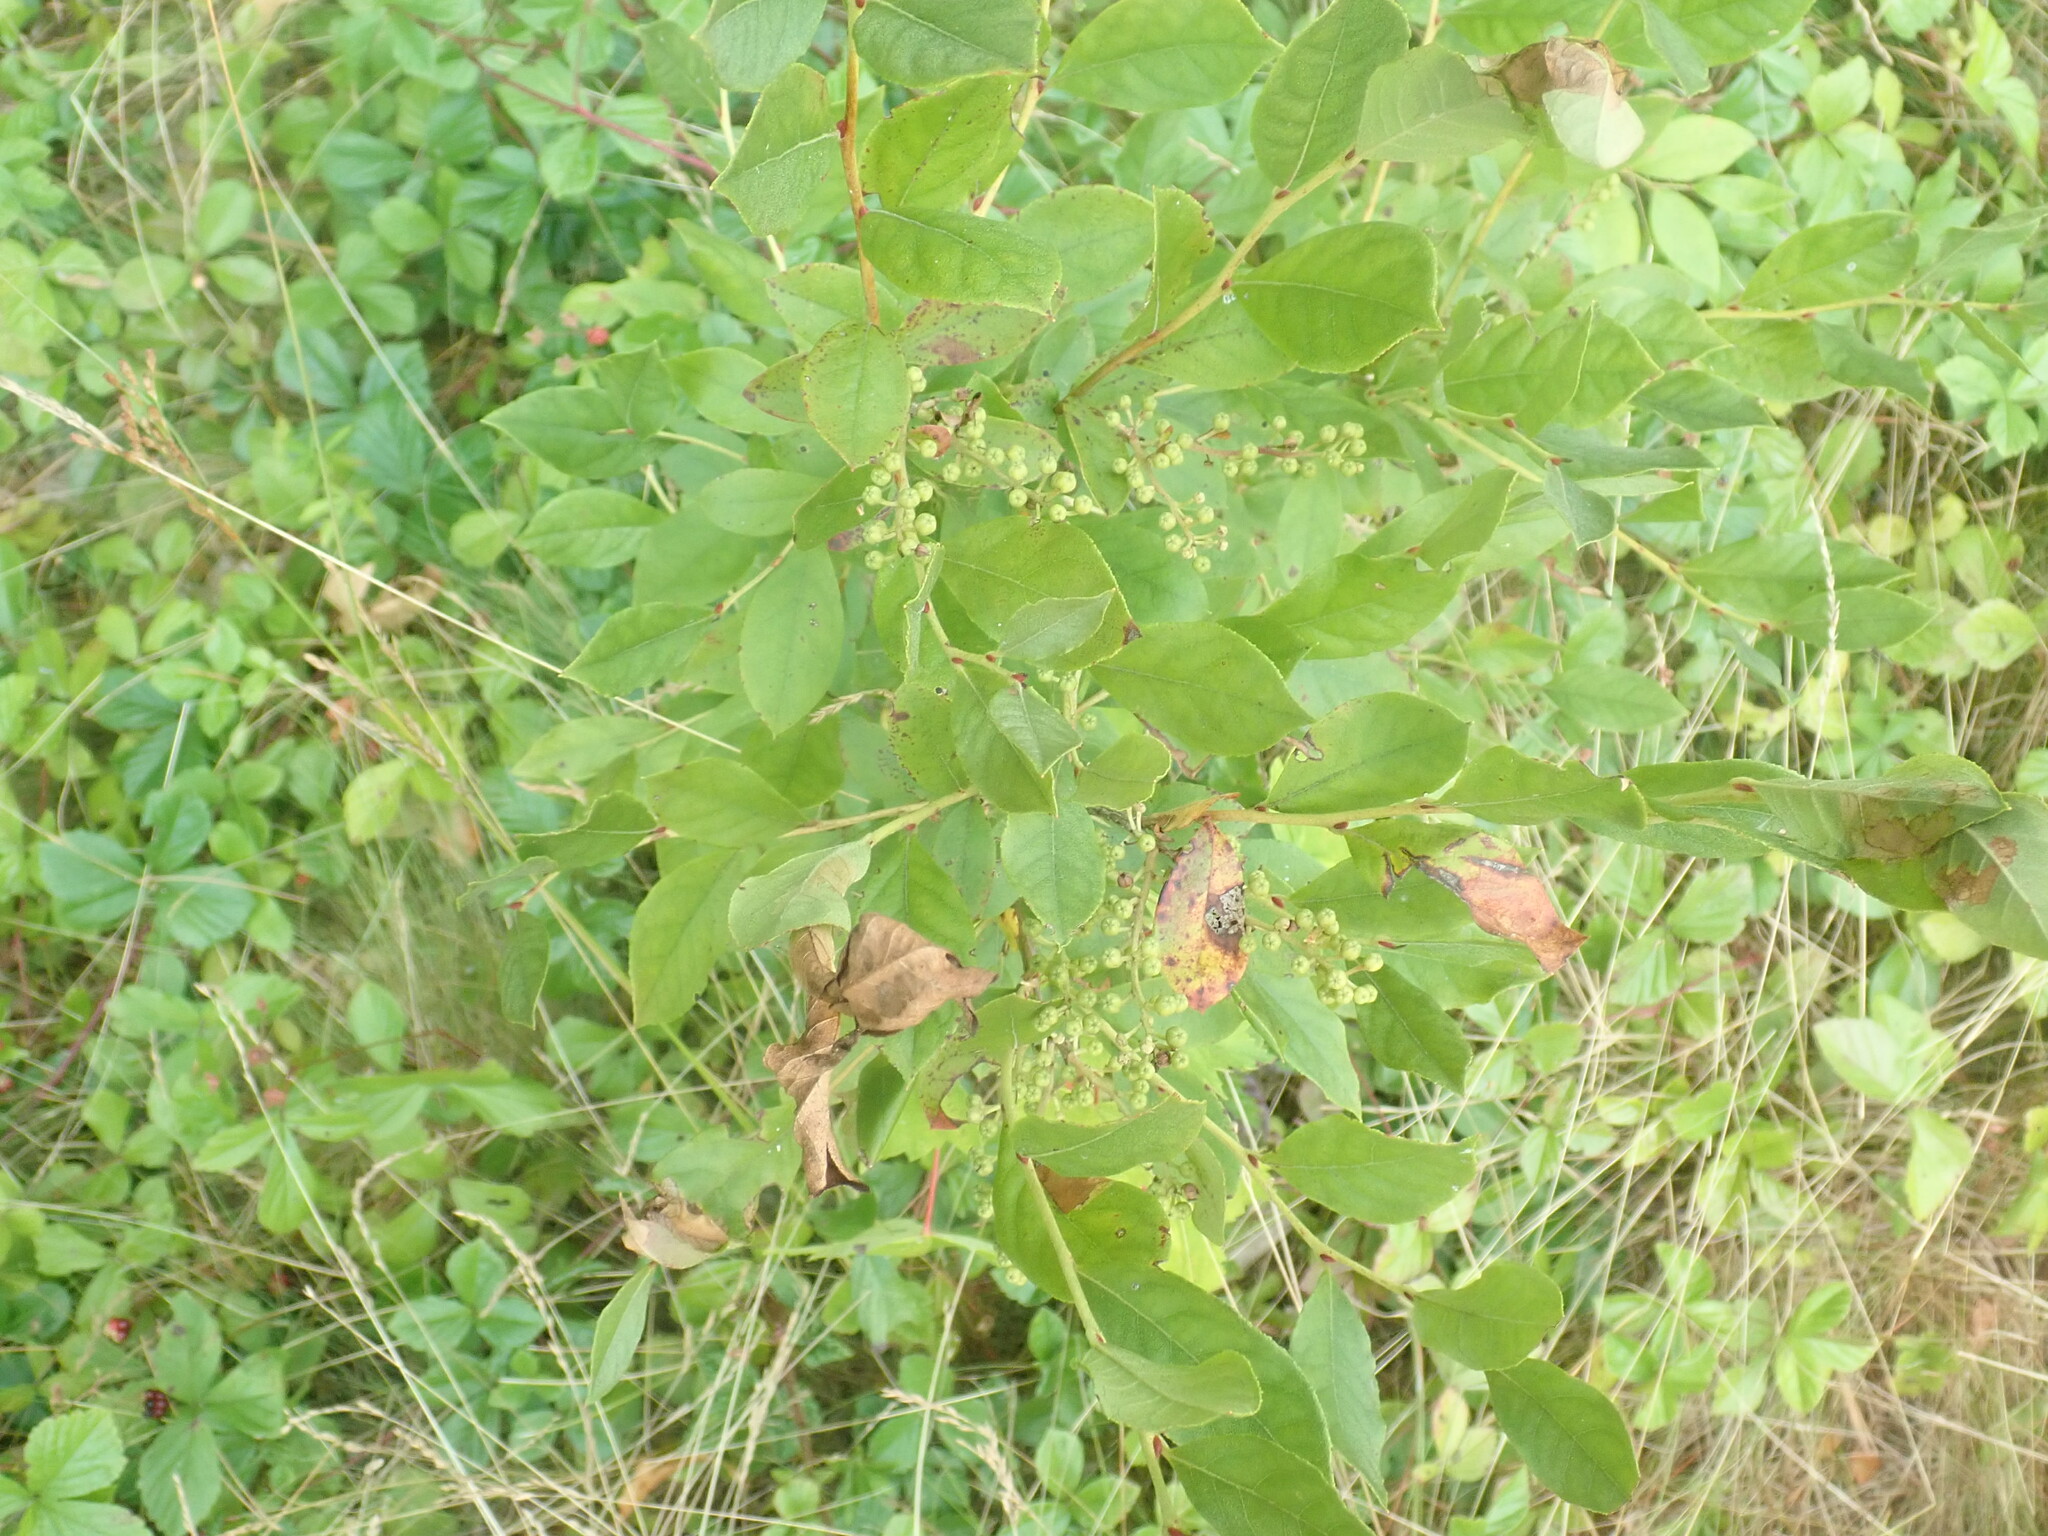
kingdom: Plantae
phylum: Tracheophyta
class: Magnoliopsida
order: Ericales
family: Ericaceae
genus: Lyonia
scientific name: Lyonia ligustrina
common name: Maleberry
